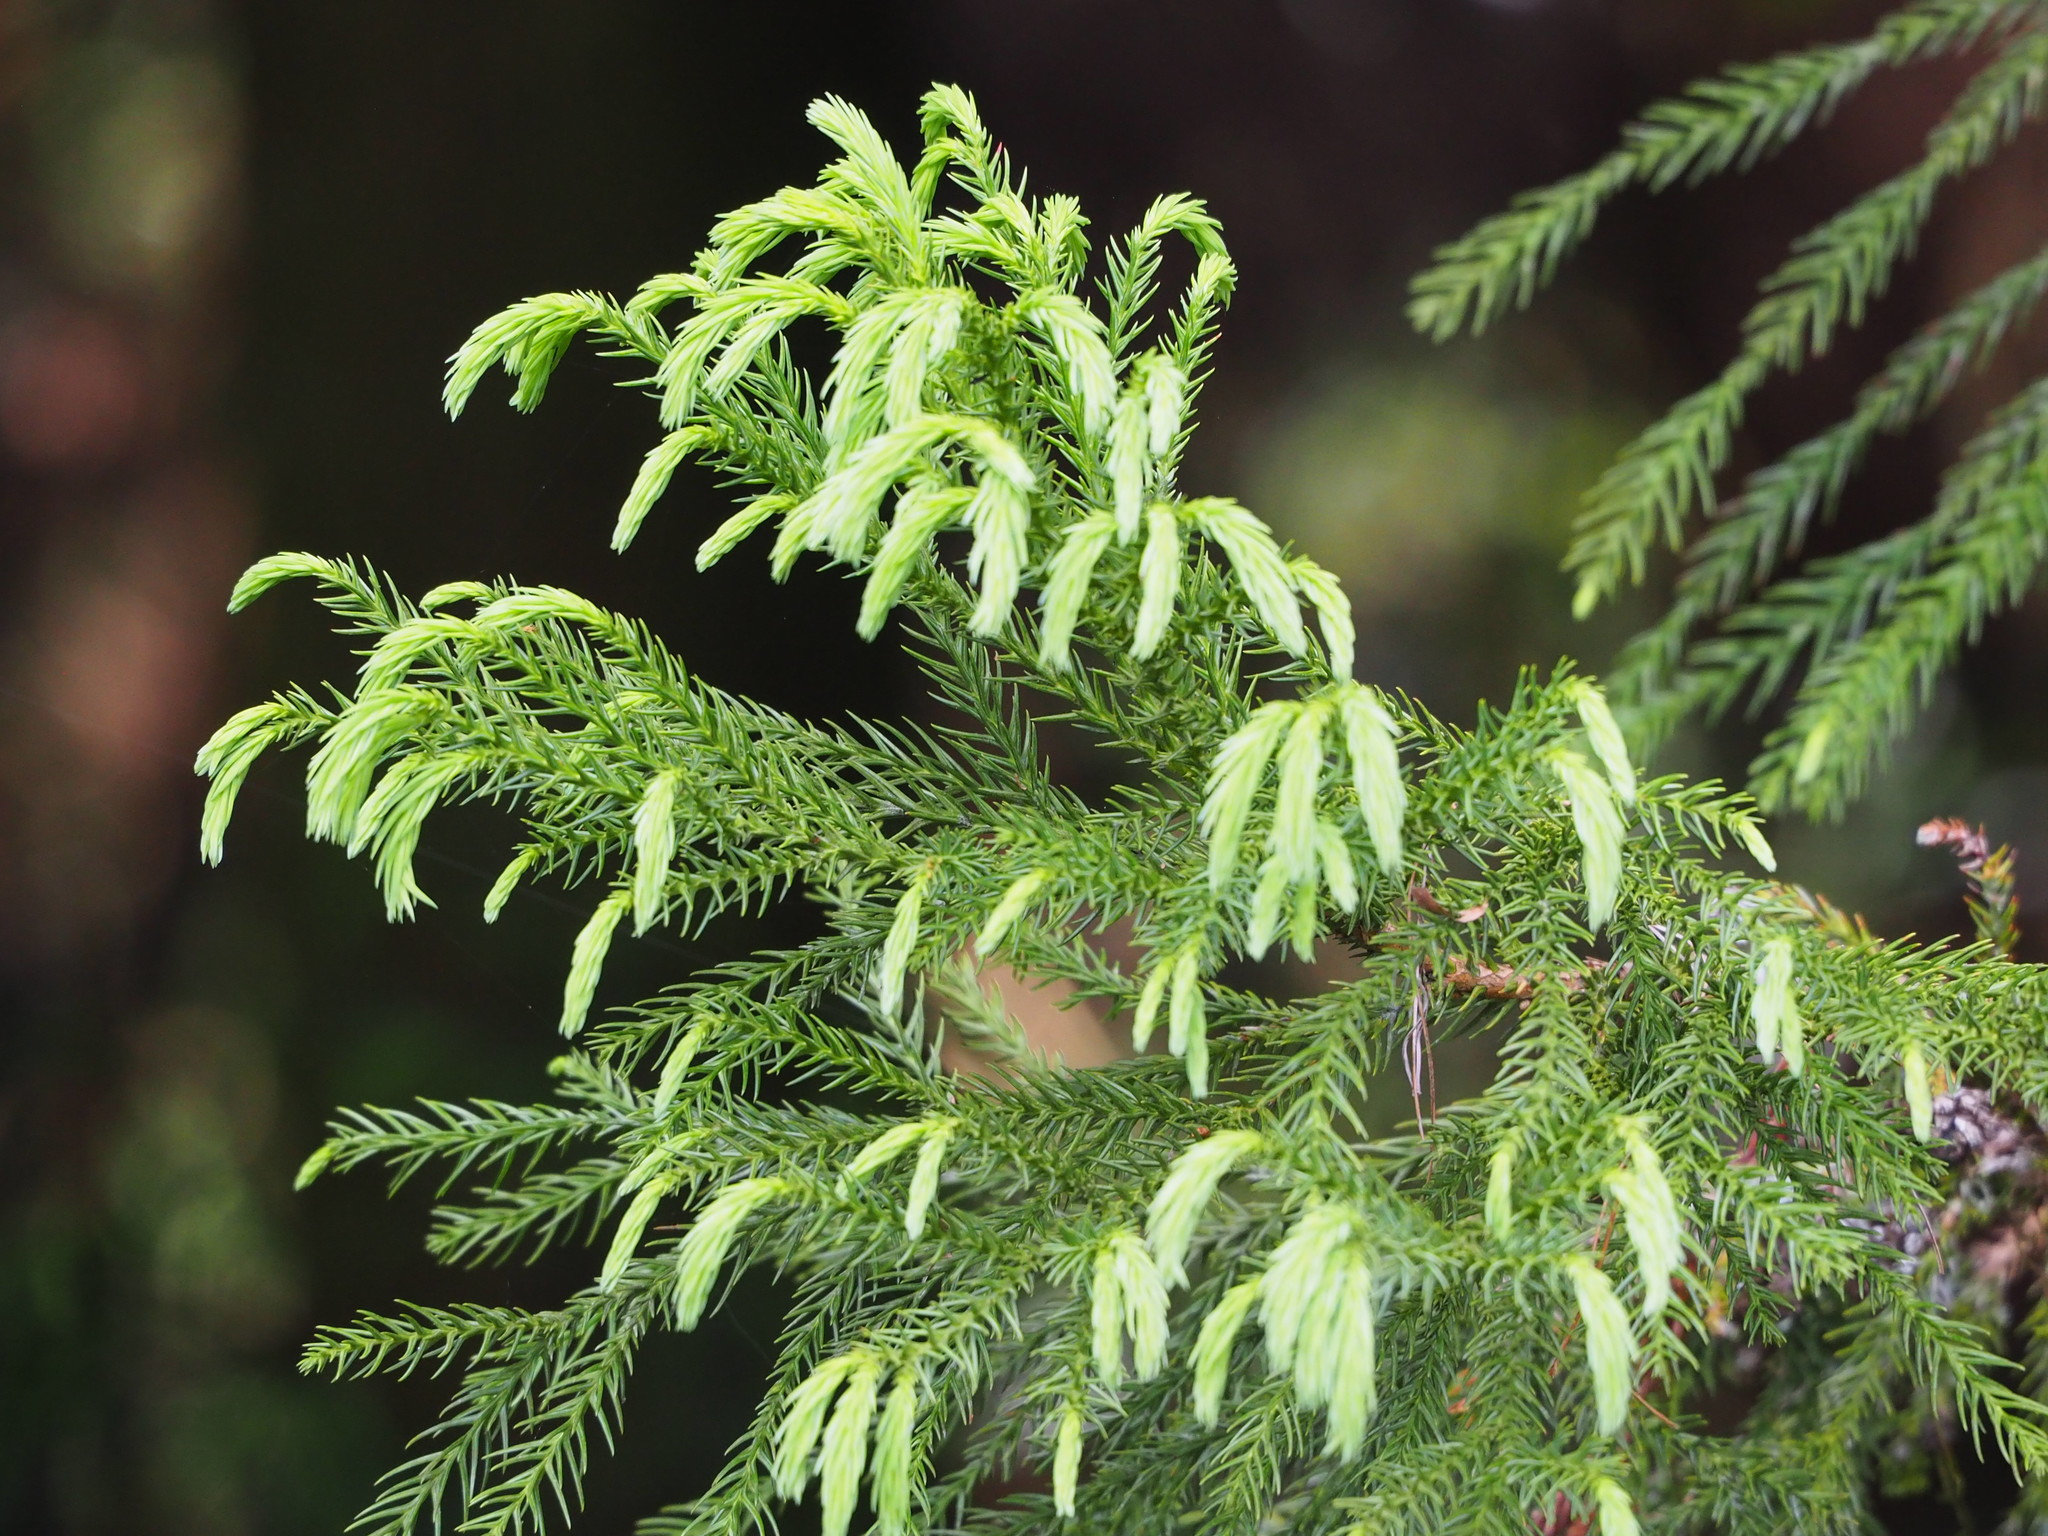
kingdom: Plantae
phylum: Tracheophyta
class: Pinopsida
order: Pinales
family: Cupressaceae
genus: Cryptomeria
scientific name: Cryptomeria japonica
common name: Japanese cedar
